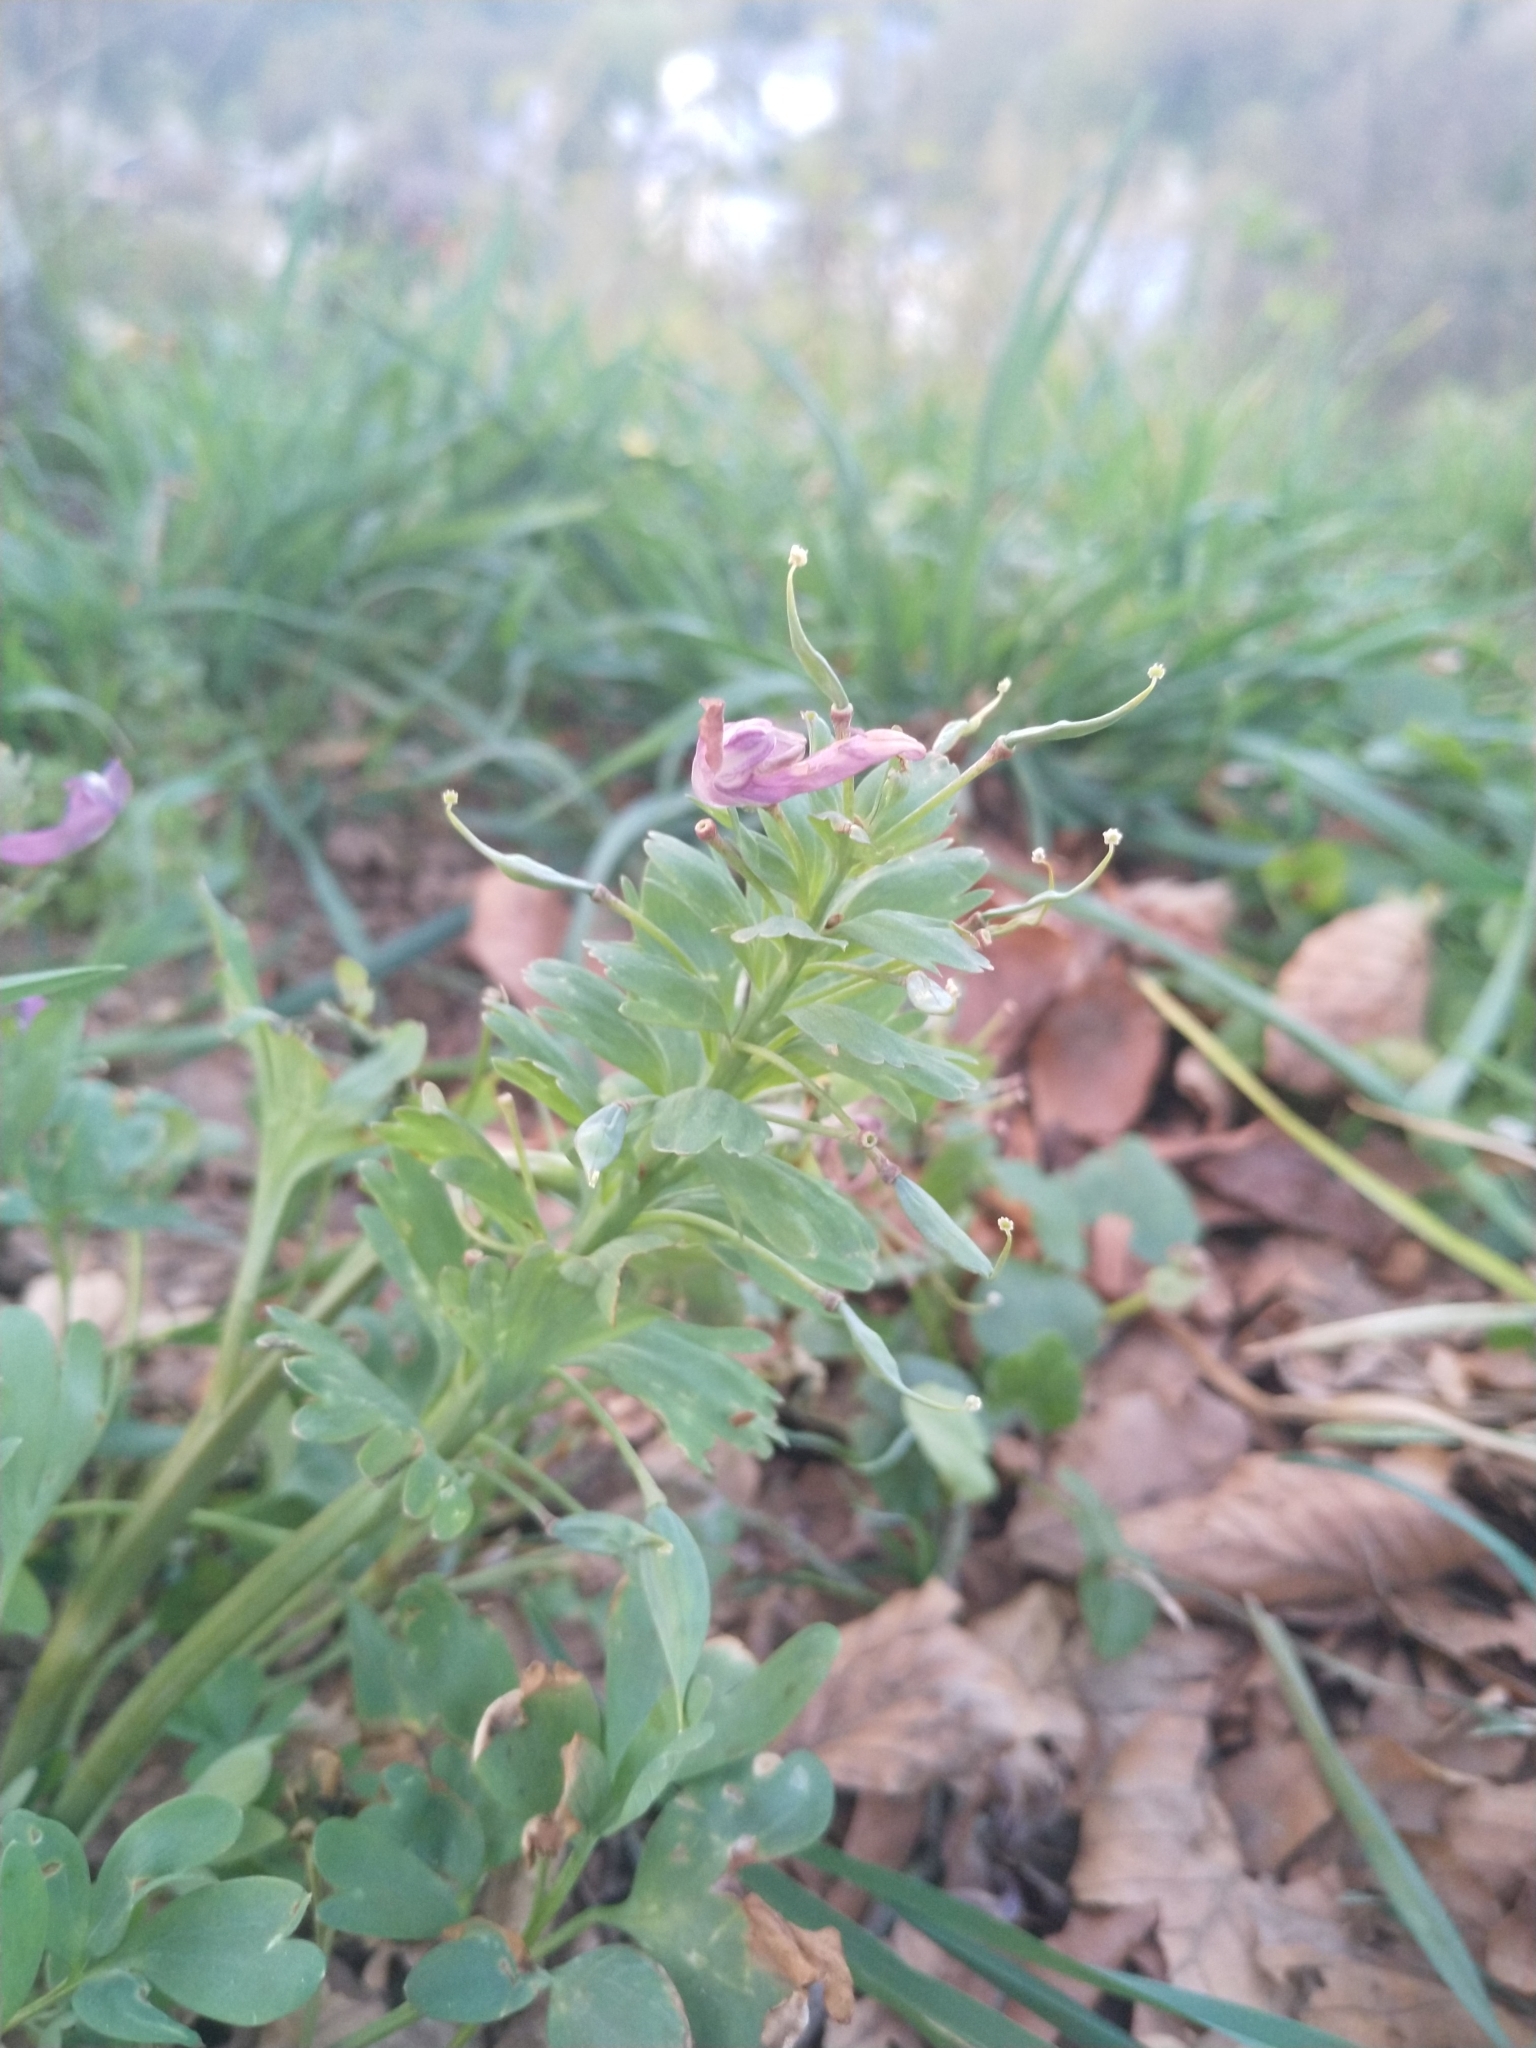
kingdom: Plantae
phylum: Tracheophyta
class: Magnoliopsida
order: Ranunculales
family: Papaveraceae
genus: Corydalis
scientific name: Corydalis solida
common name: Bird-in-a-bush
